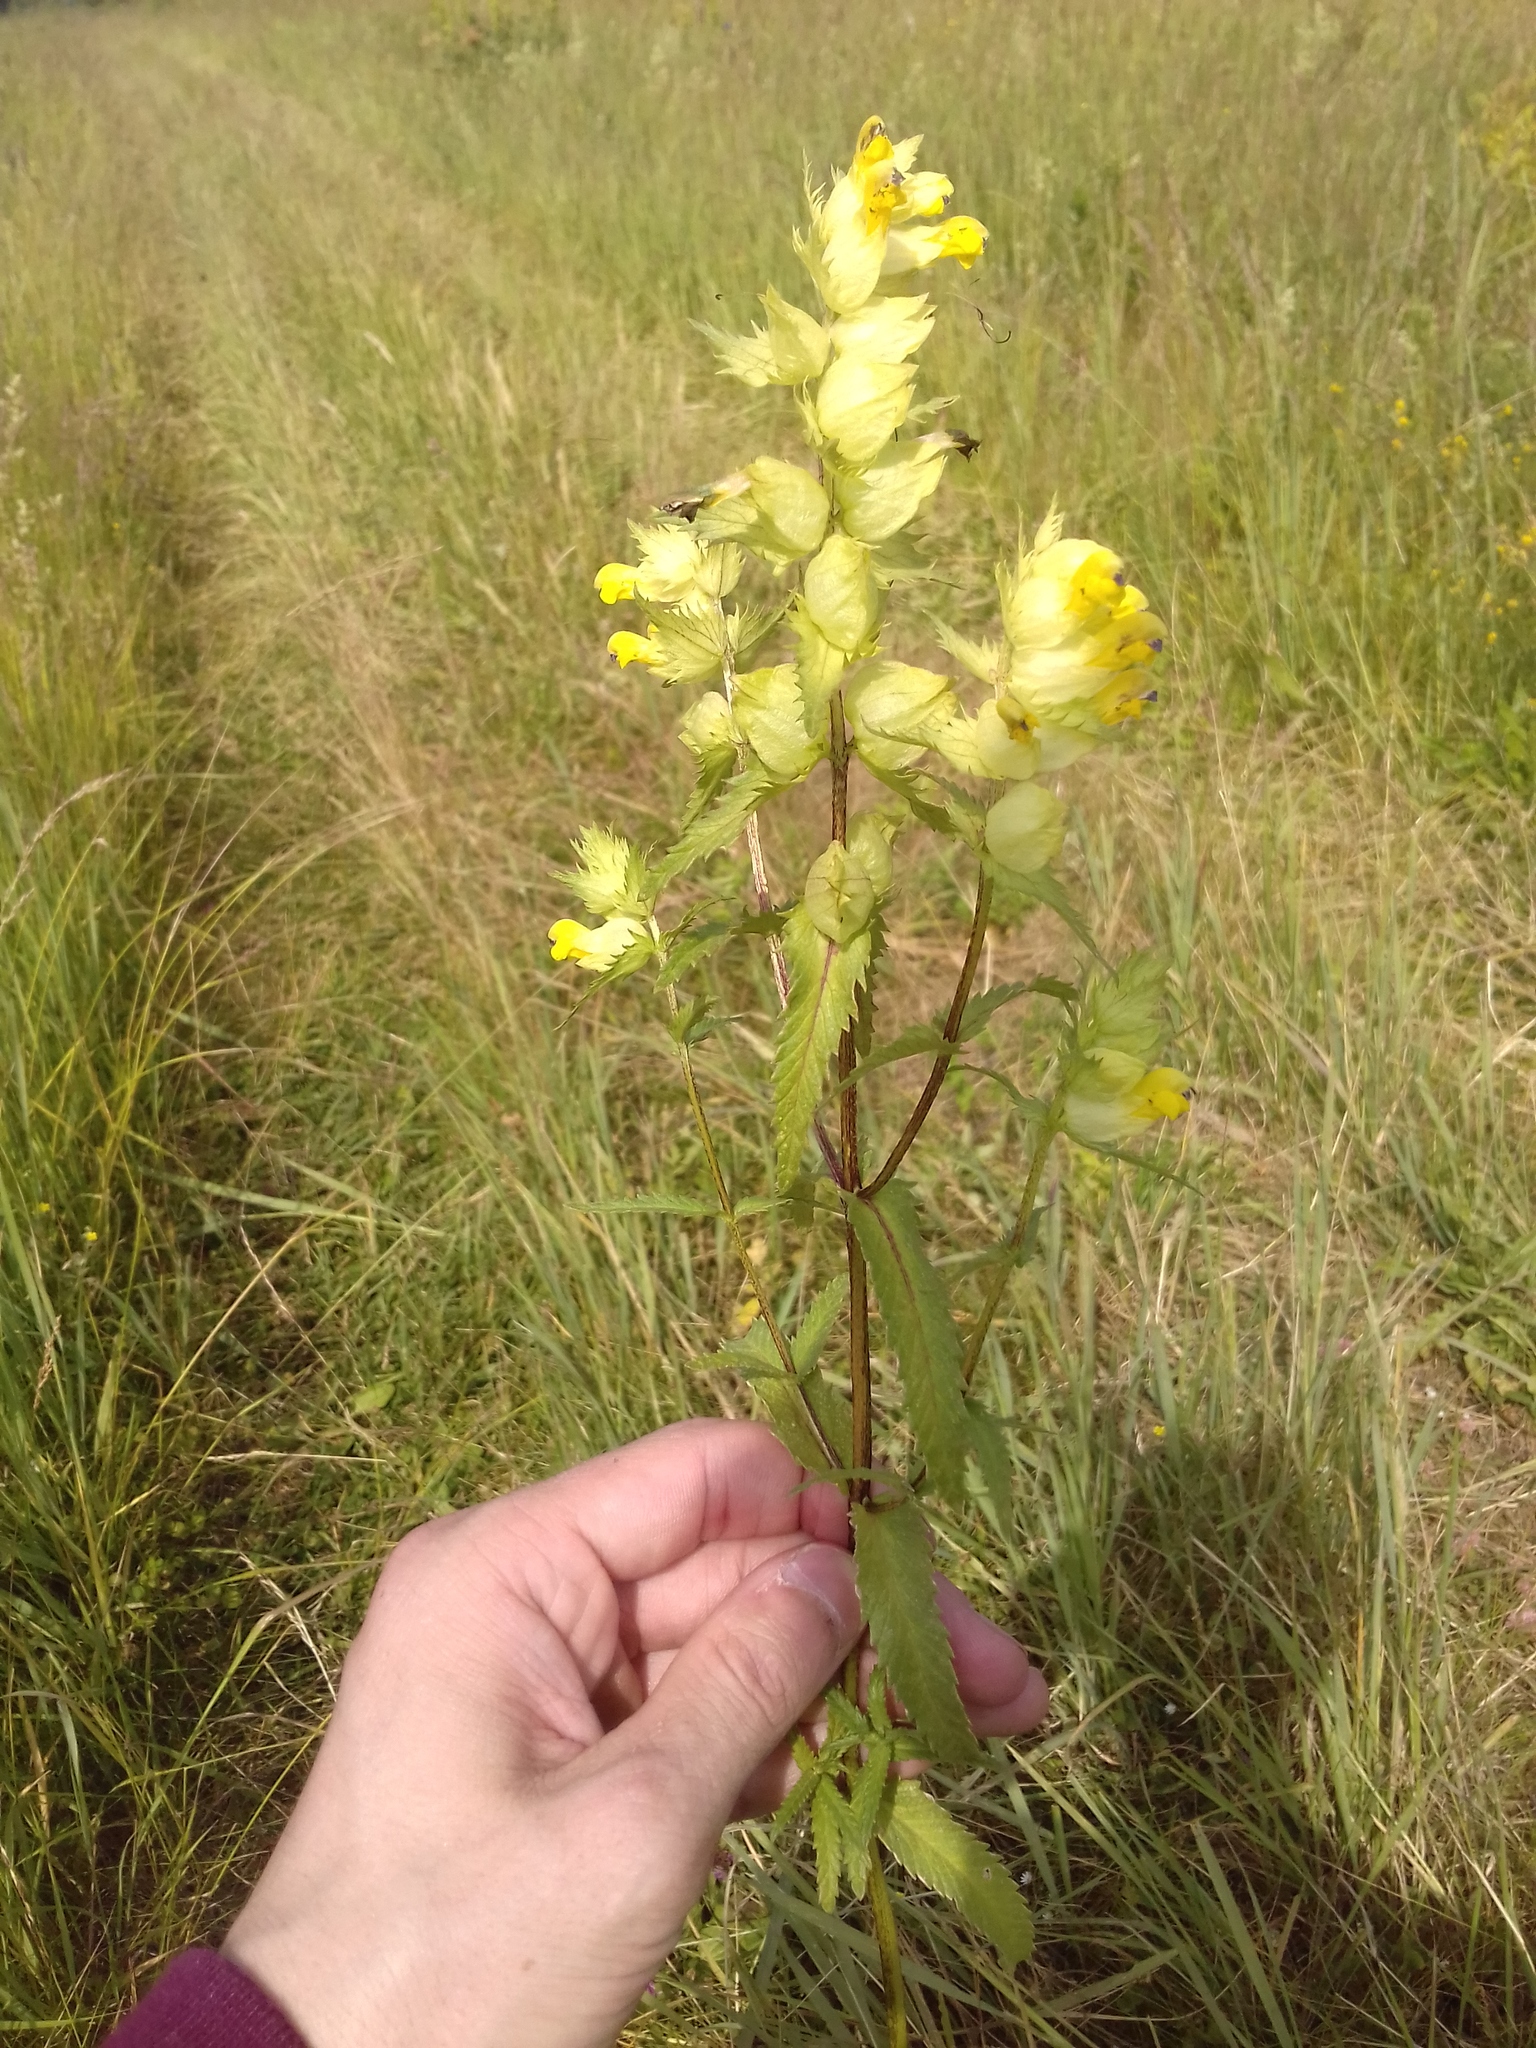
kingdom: Plantae
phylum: Tracheophyta
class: Magnoliopsida
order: Lamiales
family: Orobanchaceae
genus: Rhinanthus
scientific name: Rhinanthus serotinus
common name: Late-flowering yellow rattle
